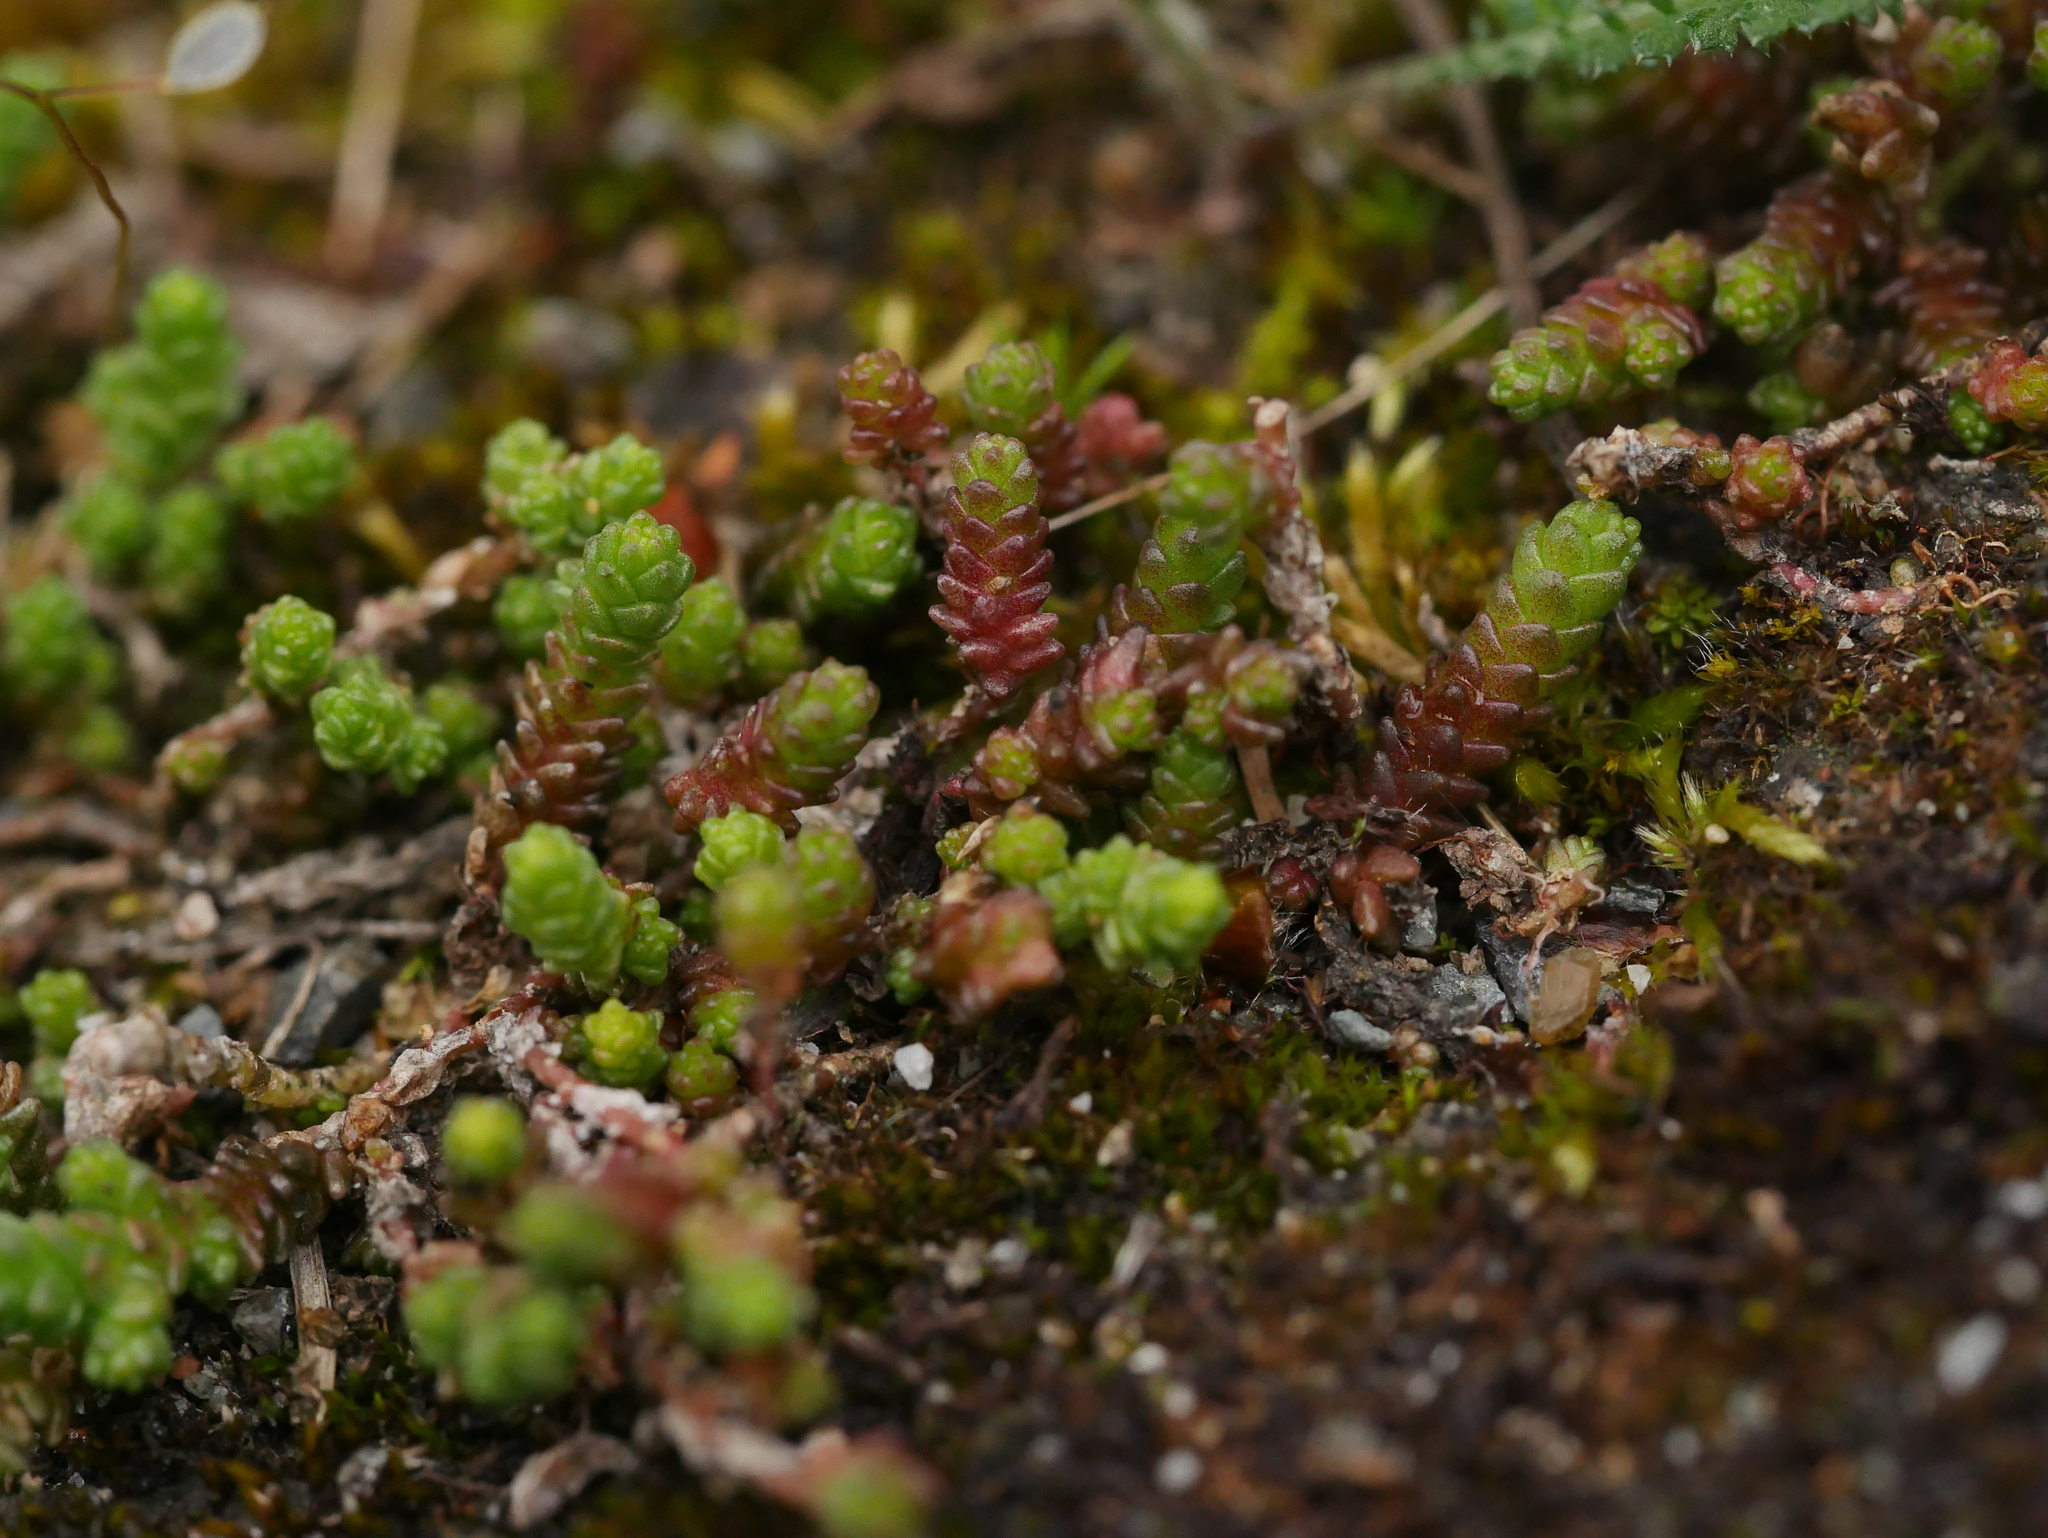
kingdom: Plantae
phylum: Tracheophyta
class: Magnoliopsida
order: Saxifragales
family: Crassulaceae
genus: Sedum
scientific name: Sedum acre
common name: Biting stonecrop
